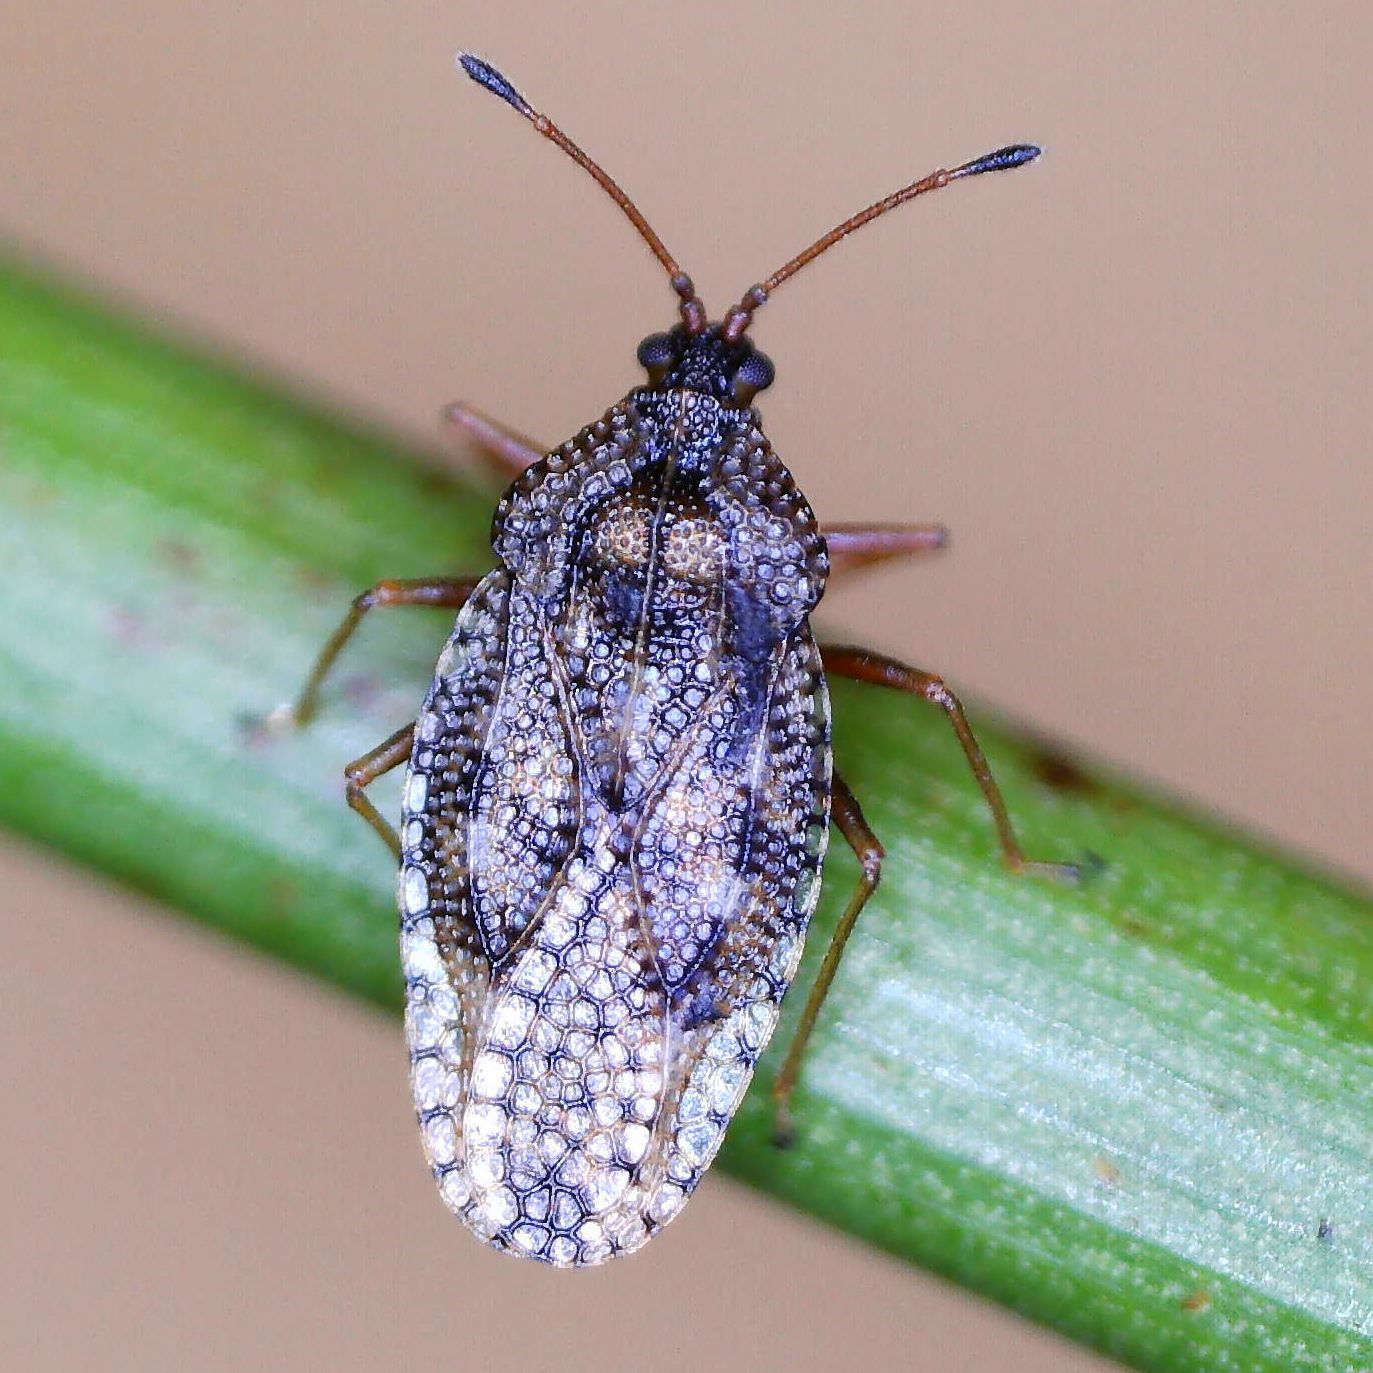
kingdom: Animalia
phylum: Arthropoda
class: Insecta
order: Hemiptera
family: Tingidae
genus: Dictyla
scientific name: Dictyla convergens
